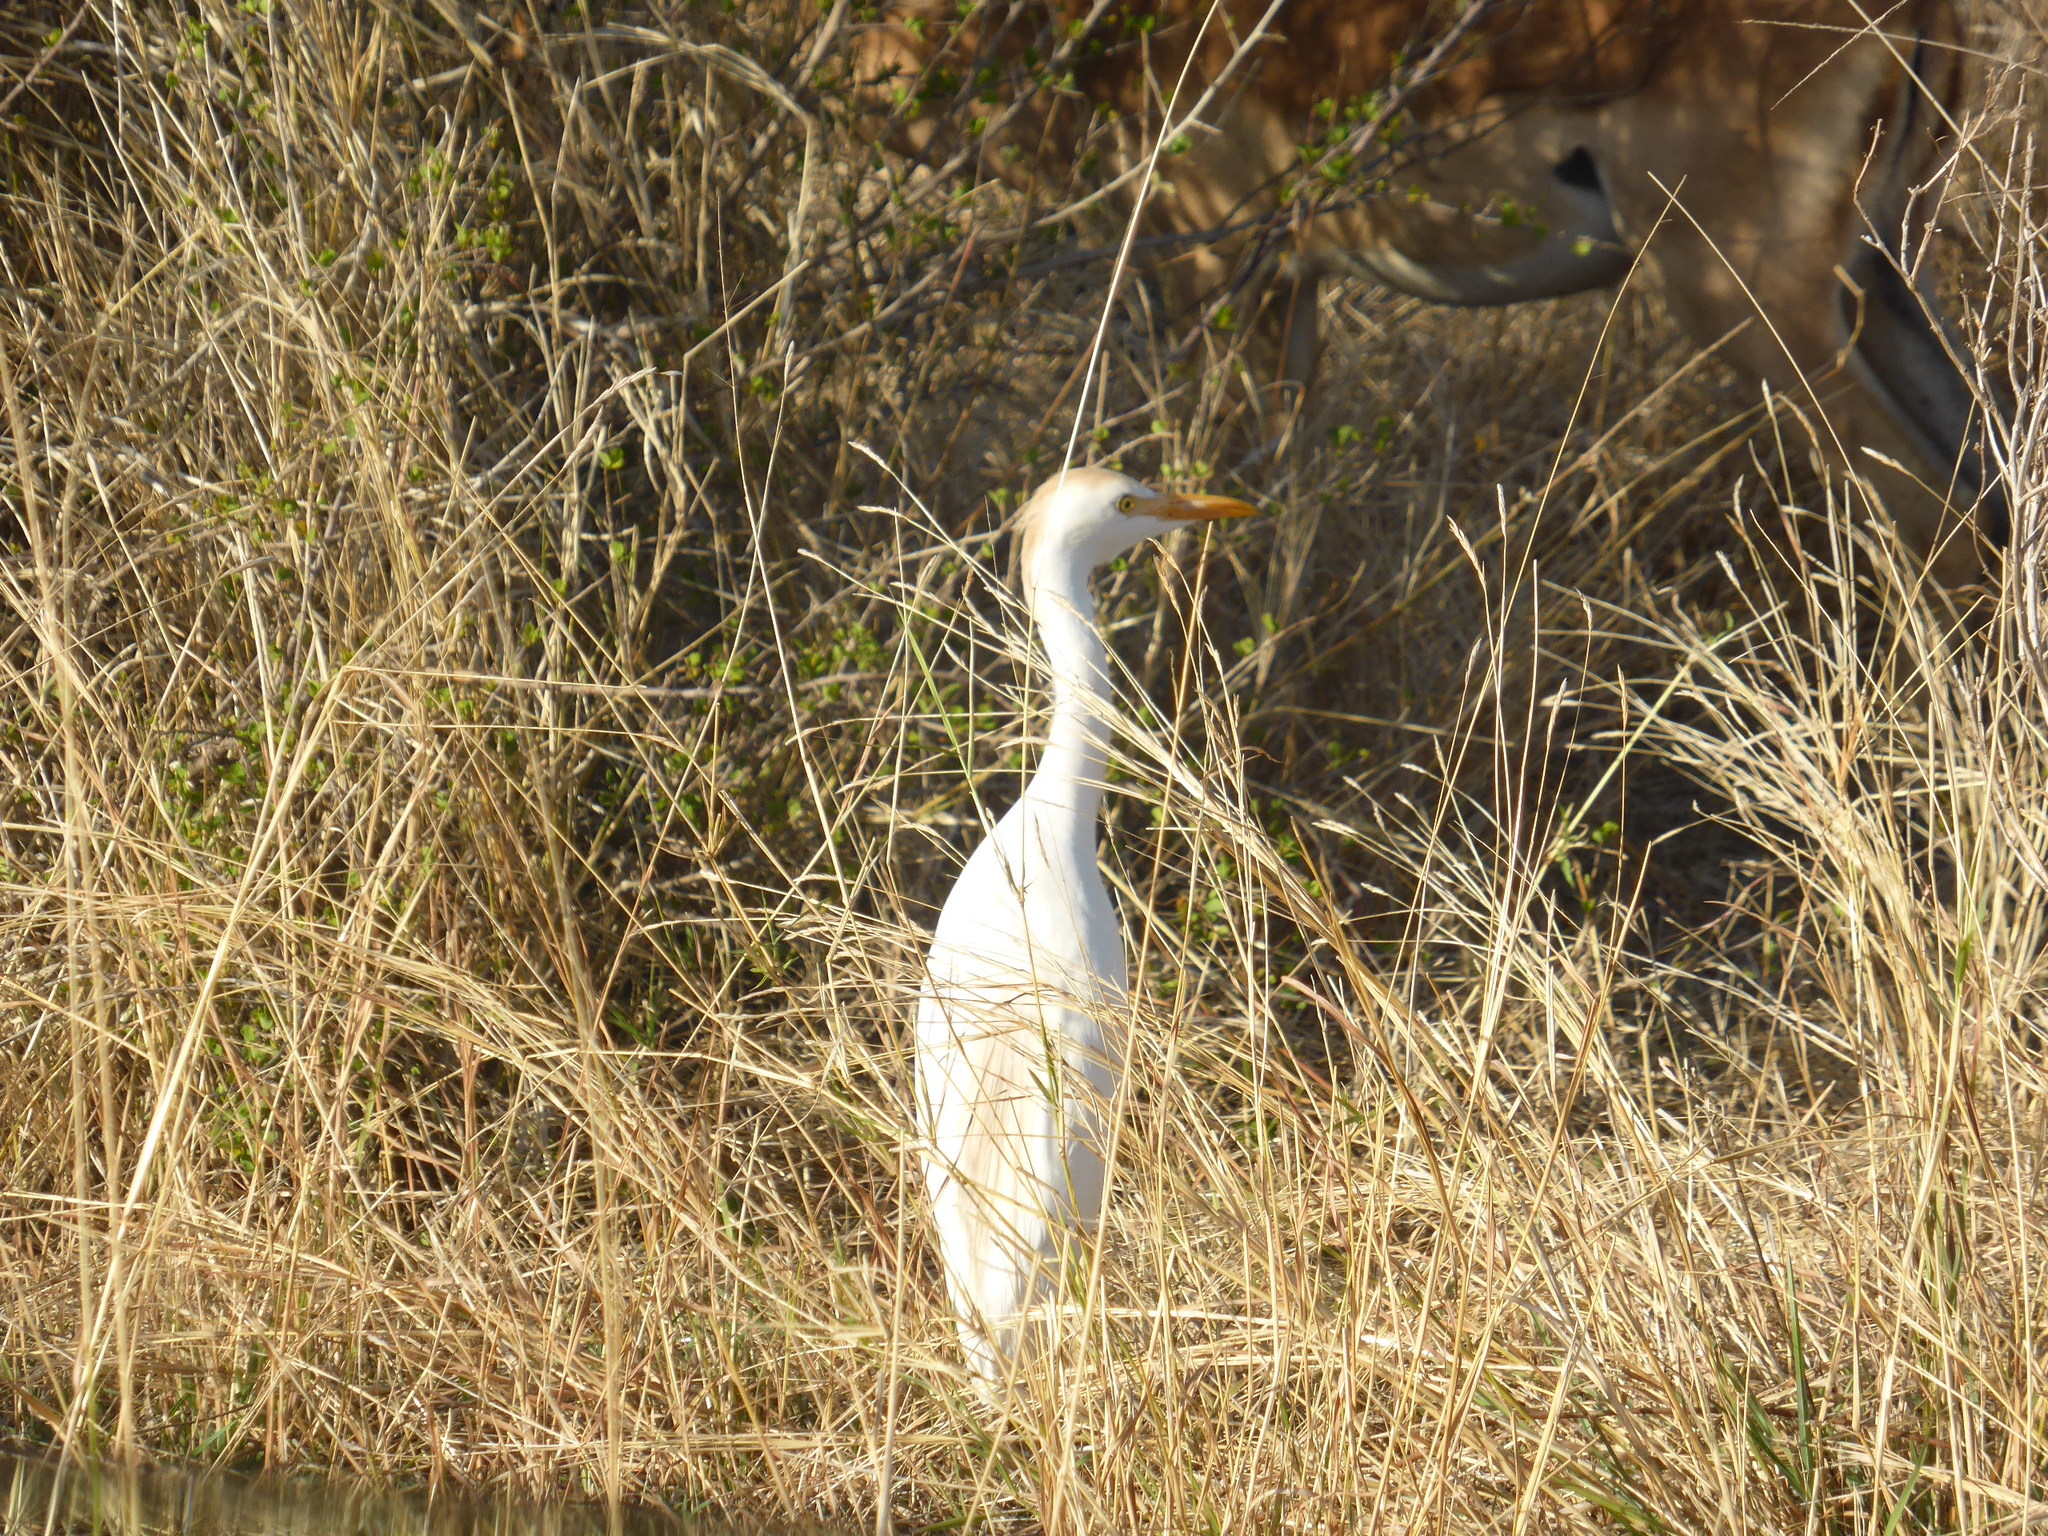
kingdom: Animalia
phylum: Chordata
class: Aves
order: Pelecaniformes
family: Ardeidae
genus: Bubulcus
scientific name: Bubulcus ibis
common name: Cattle egret
